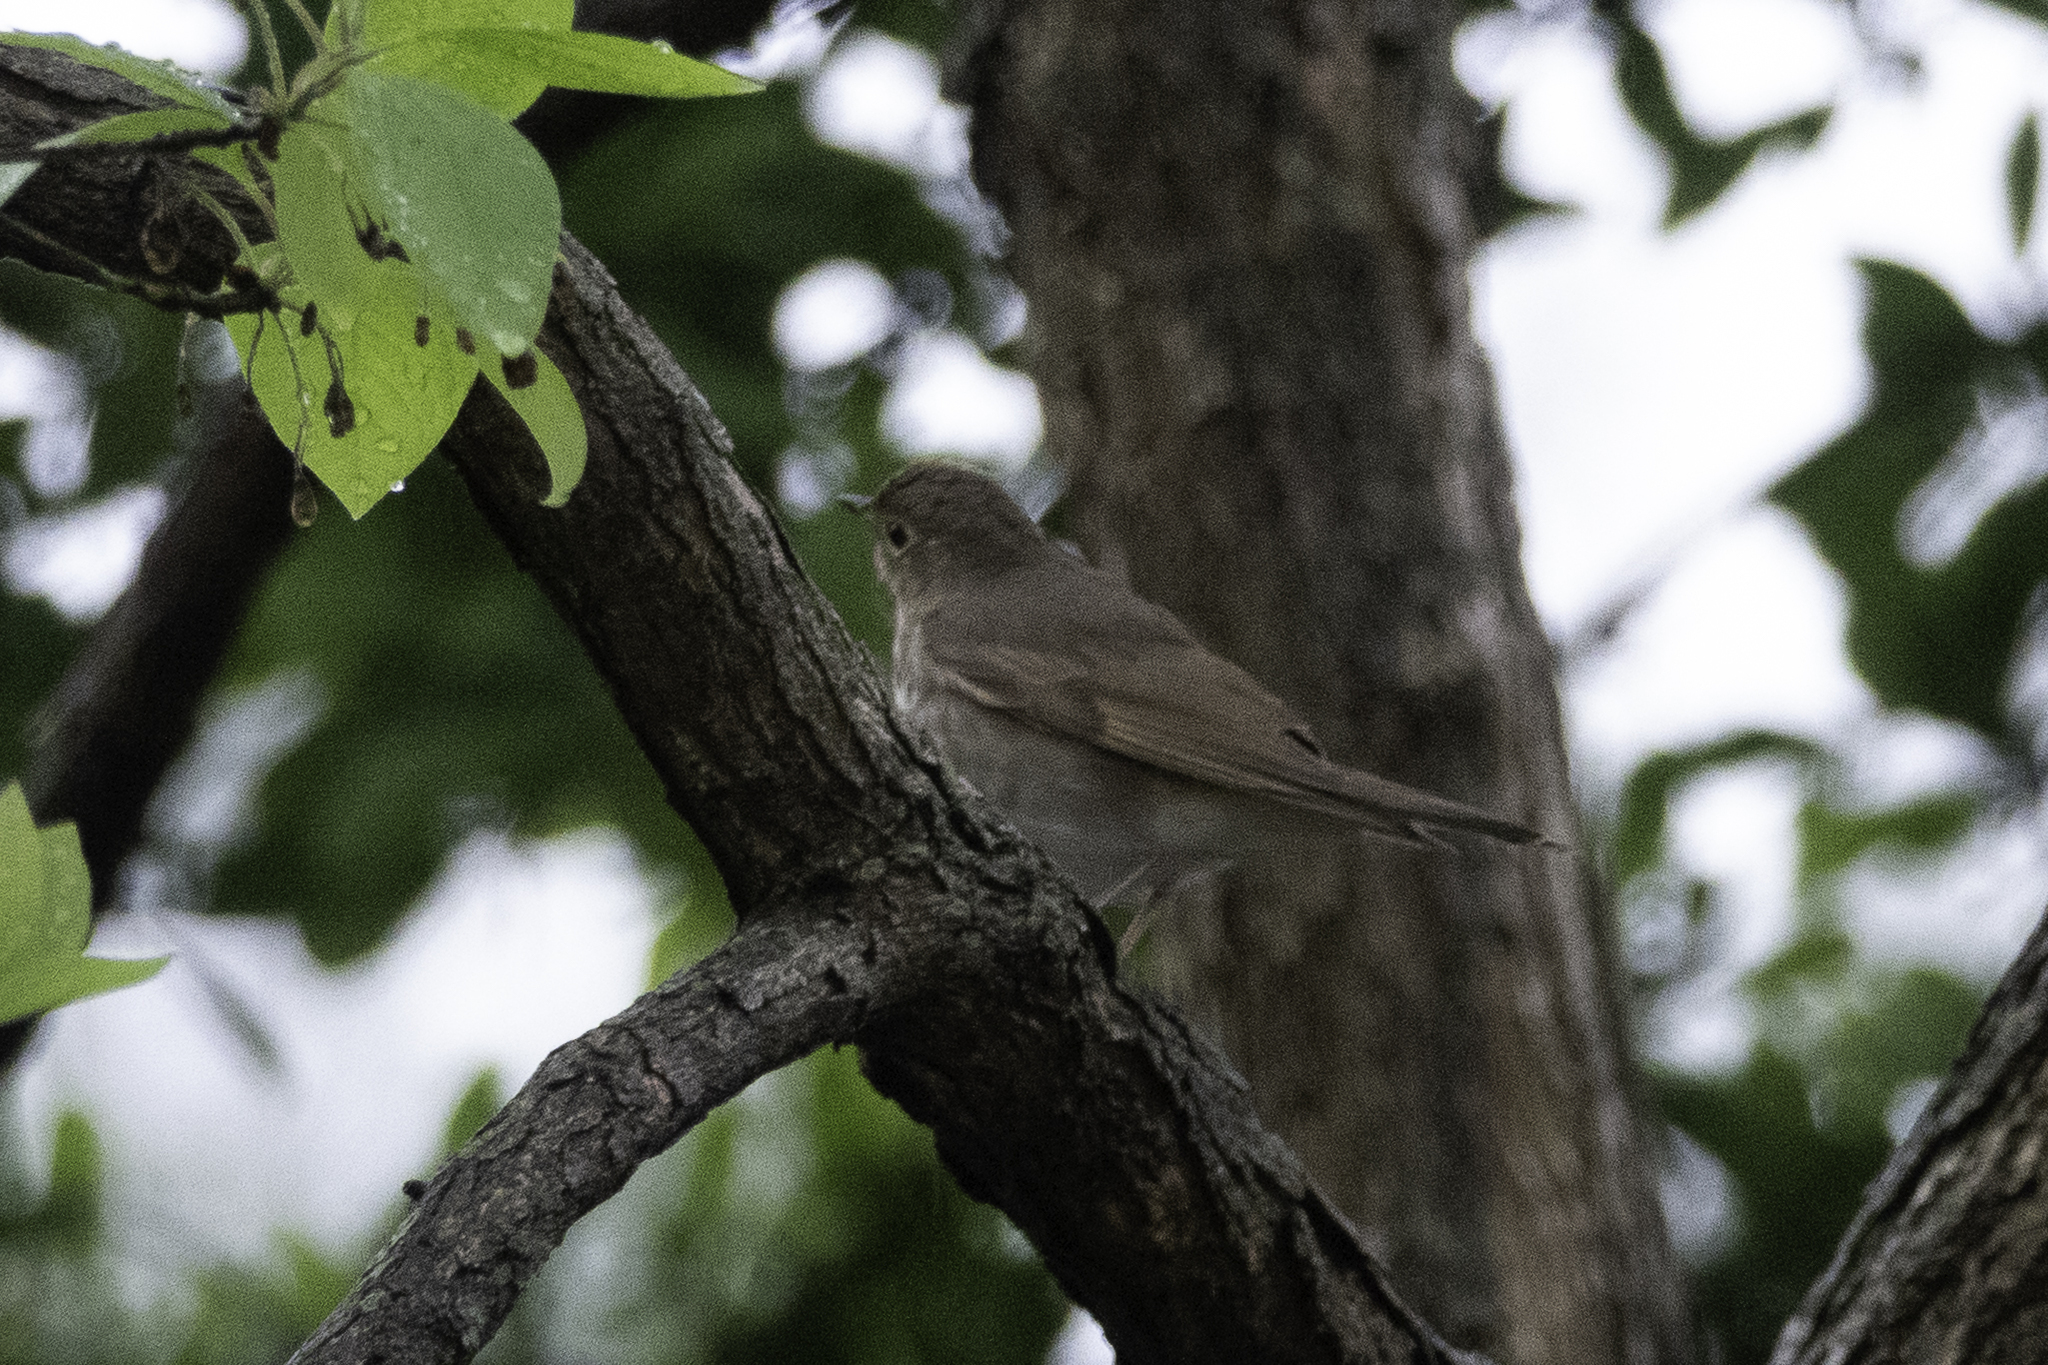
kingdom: Animalia
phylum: Chordata
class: Aves
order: Passeriformes
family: Turdidae
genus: Catharus
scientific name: Catharus ustulatus
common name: Swainson's thrush
